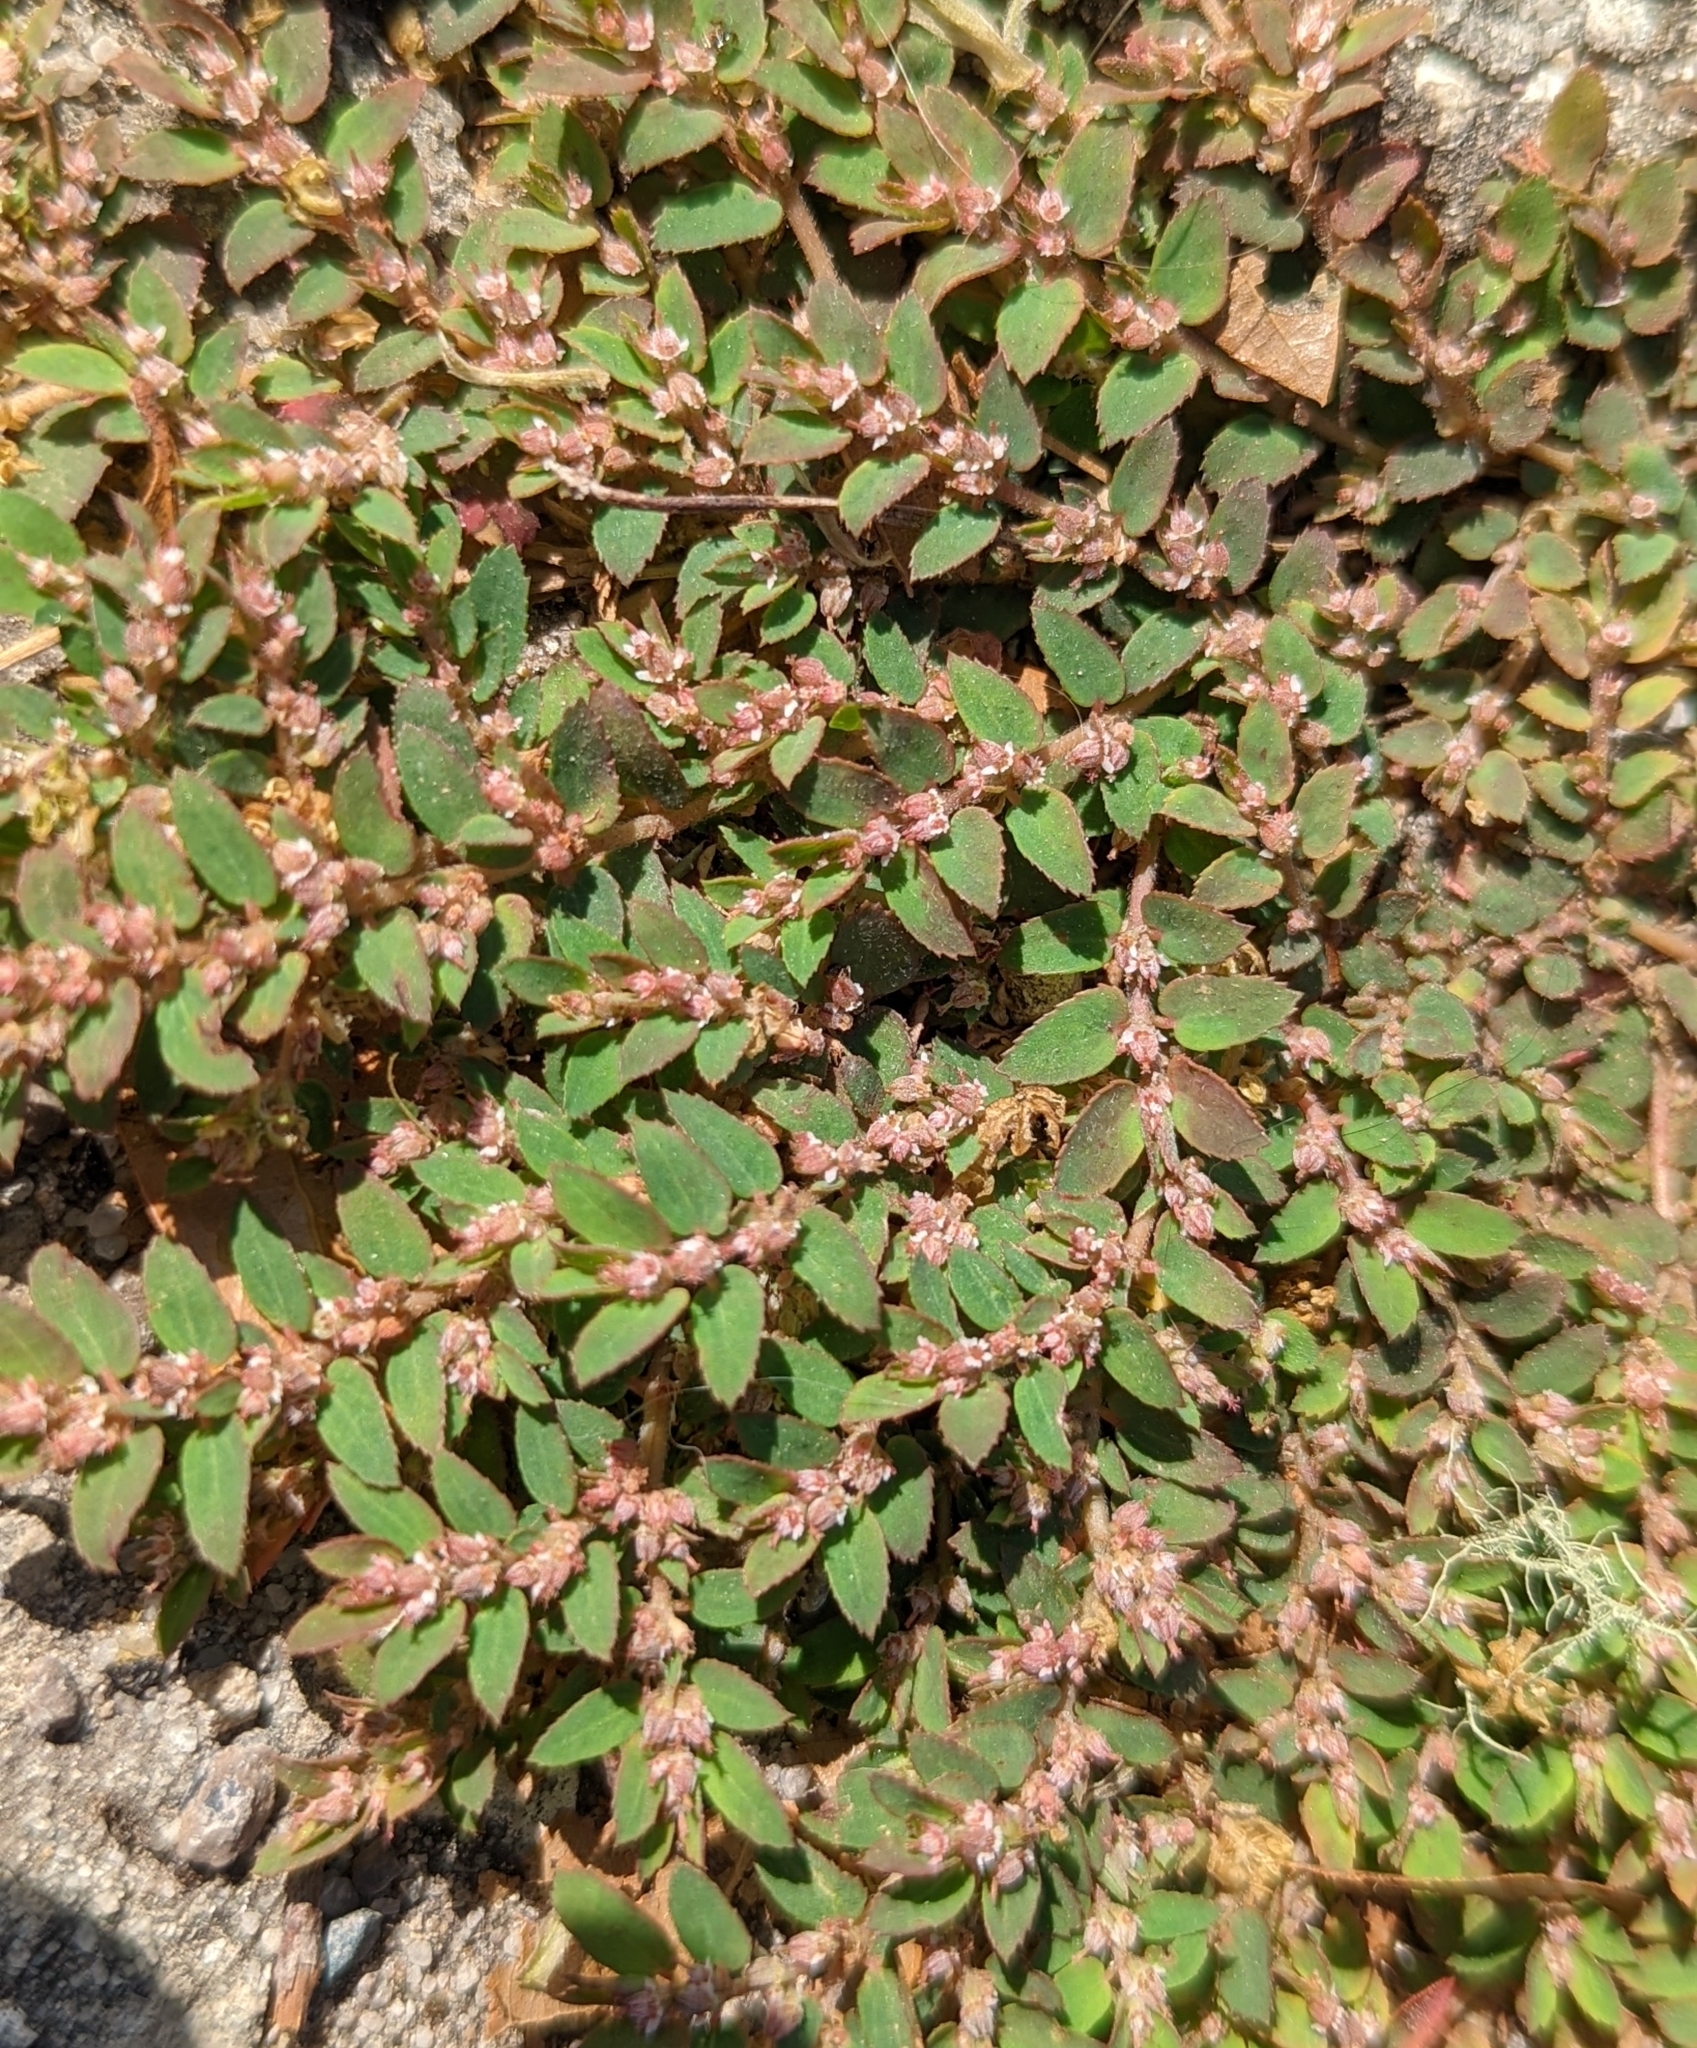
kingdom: Plantae
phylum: Tracheophyta
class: Magnoliopsida
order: Malpighiales
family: Euphorbiaceae
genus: Euphorbia
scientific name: Euphorbia thymifolia
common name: Gulf sandmat
